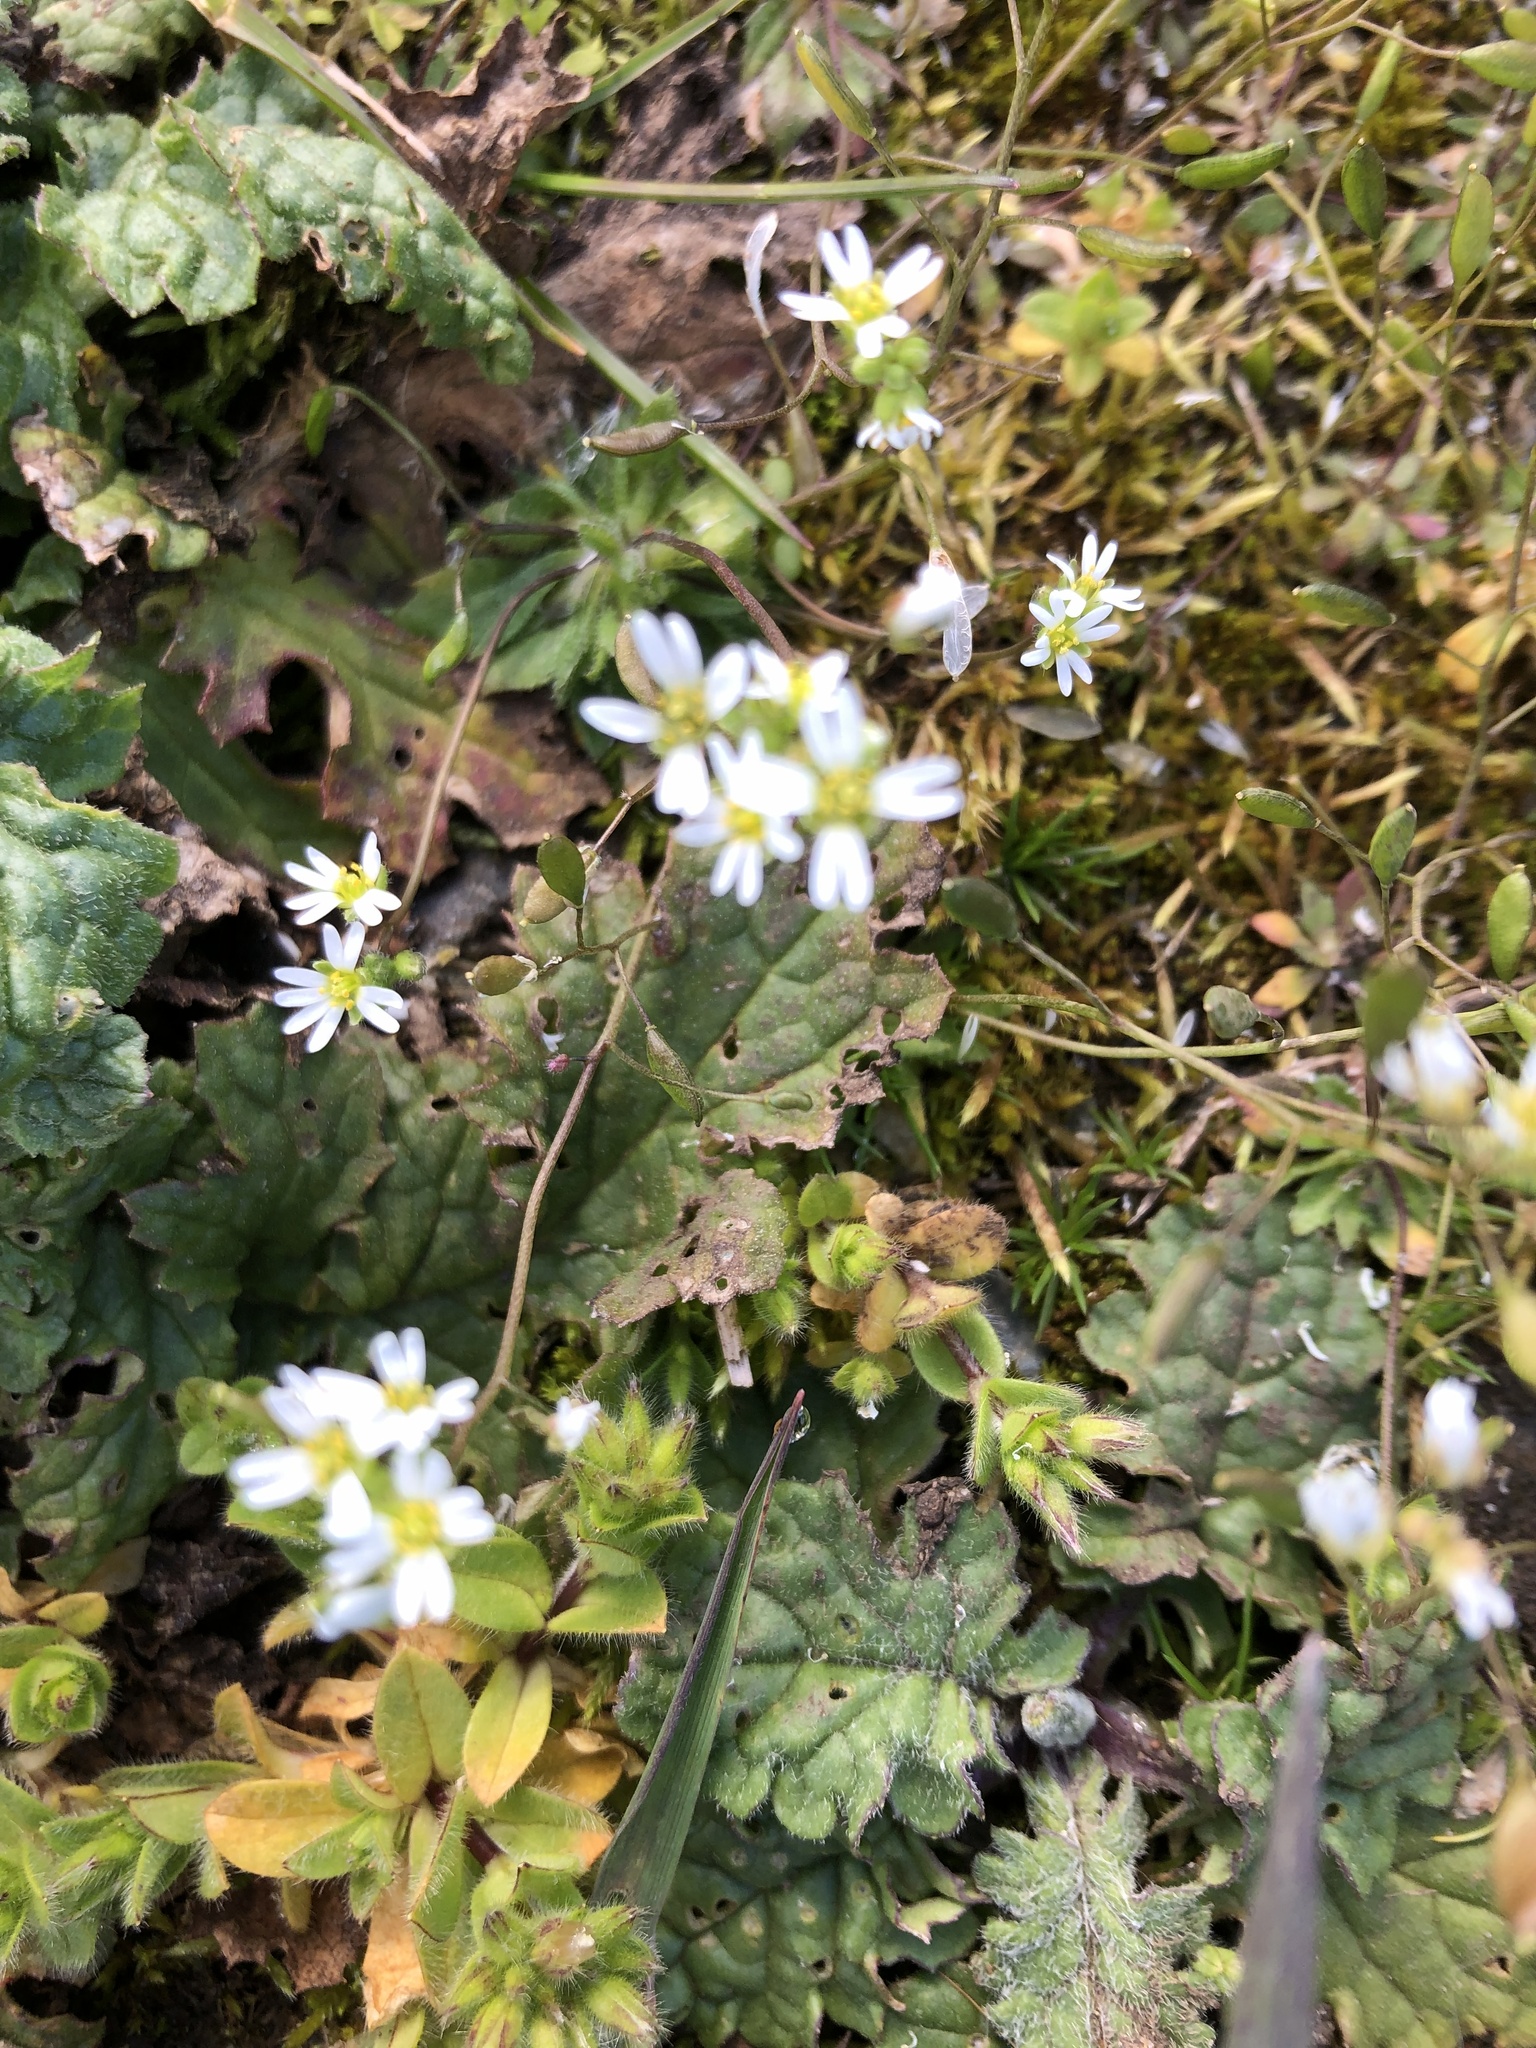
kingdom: Plantae
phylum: Tracheophyta
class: Magnoliopsida
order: Brassicales
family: Brassicaceae
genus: Draba
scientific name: Draba verna
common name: Spring draba
